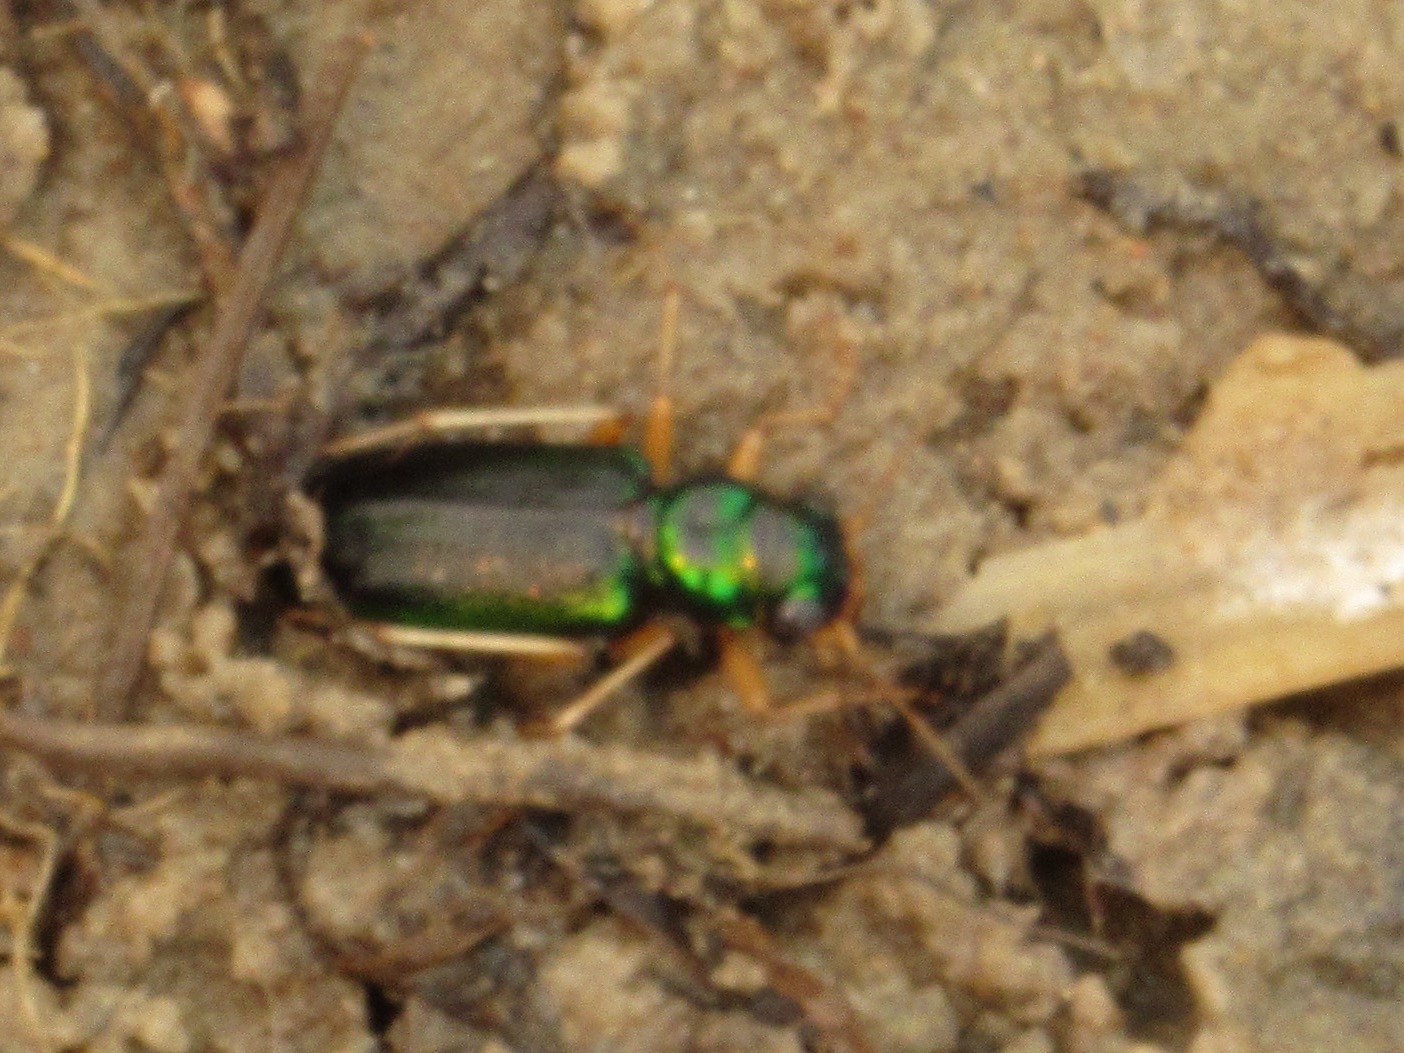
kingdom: Animalia
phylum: Arthropoda
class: Insecta
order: Coleoptera
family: Carabidae
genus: Tetracha
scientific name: Tetracha virginica
